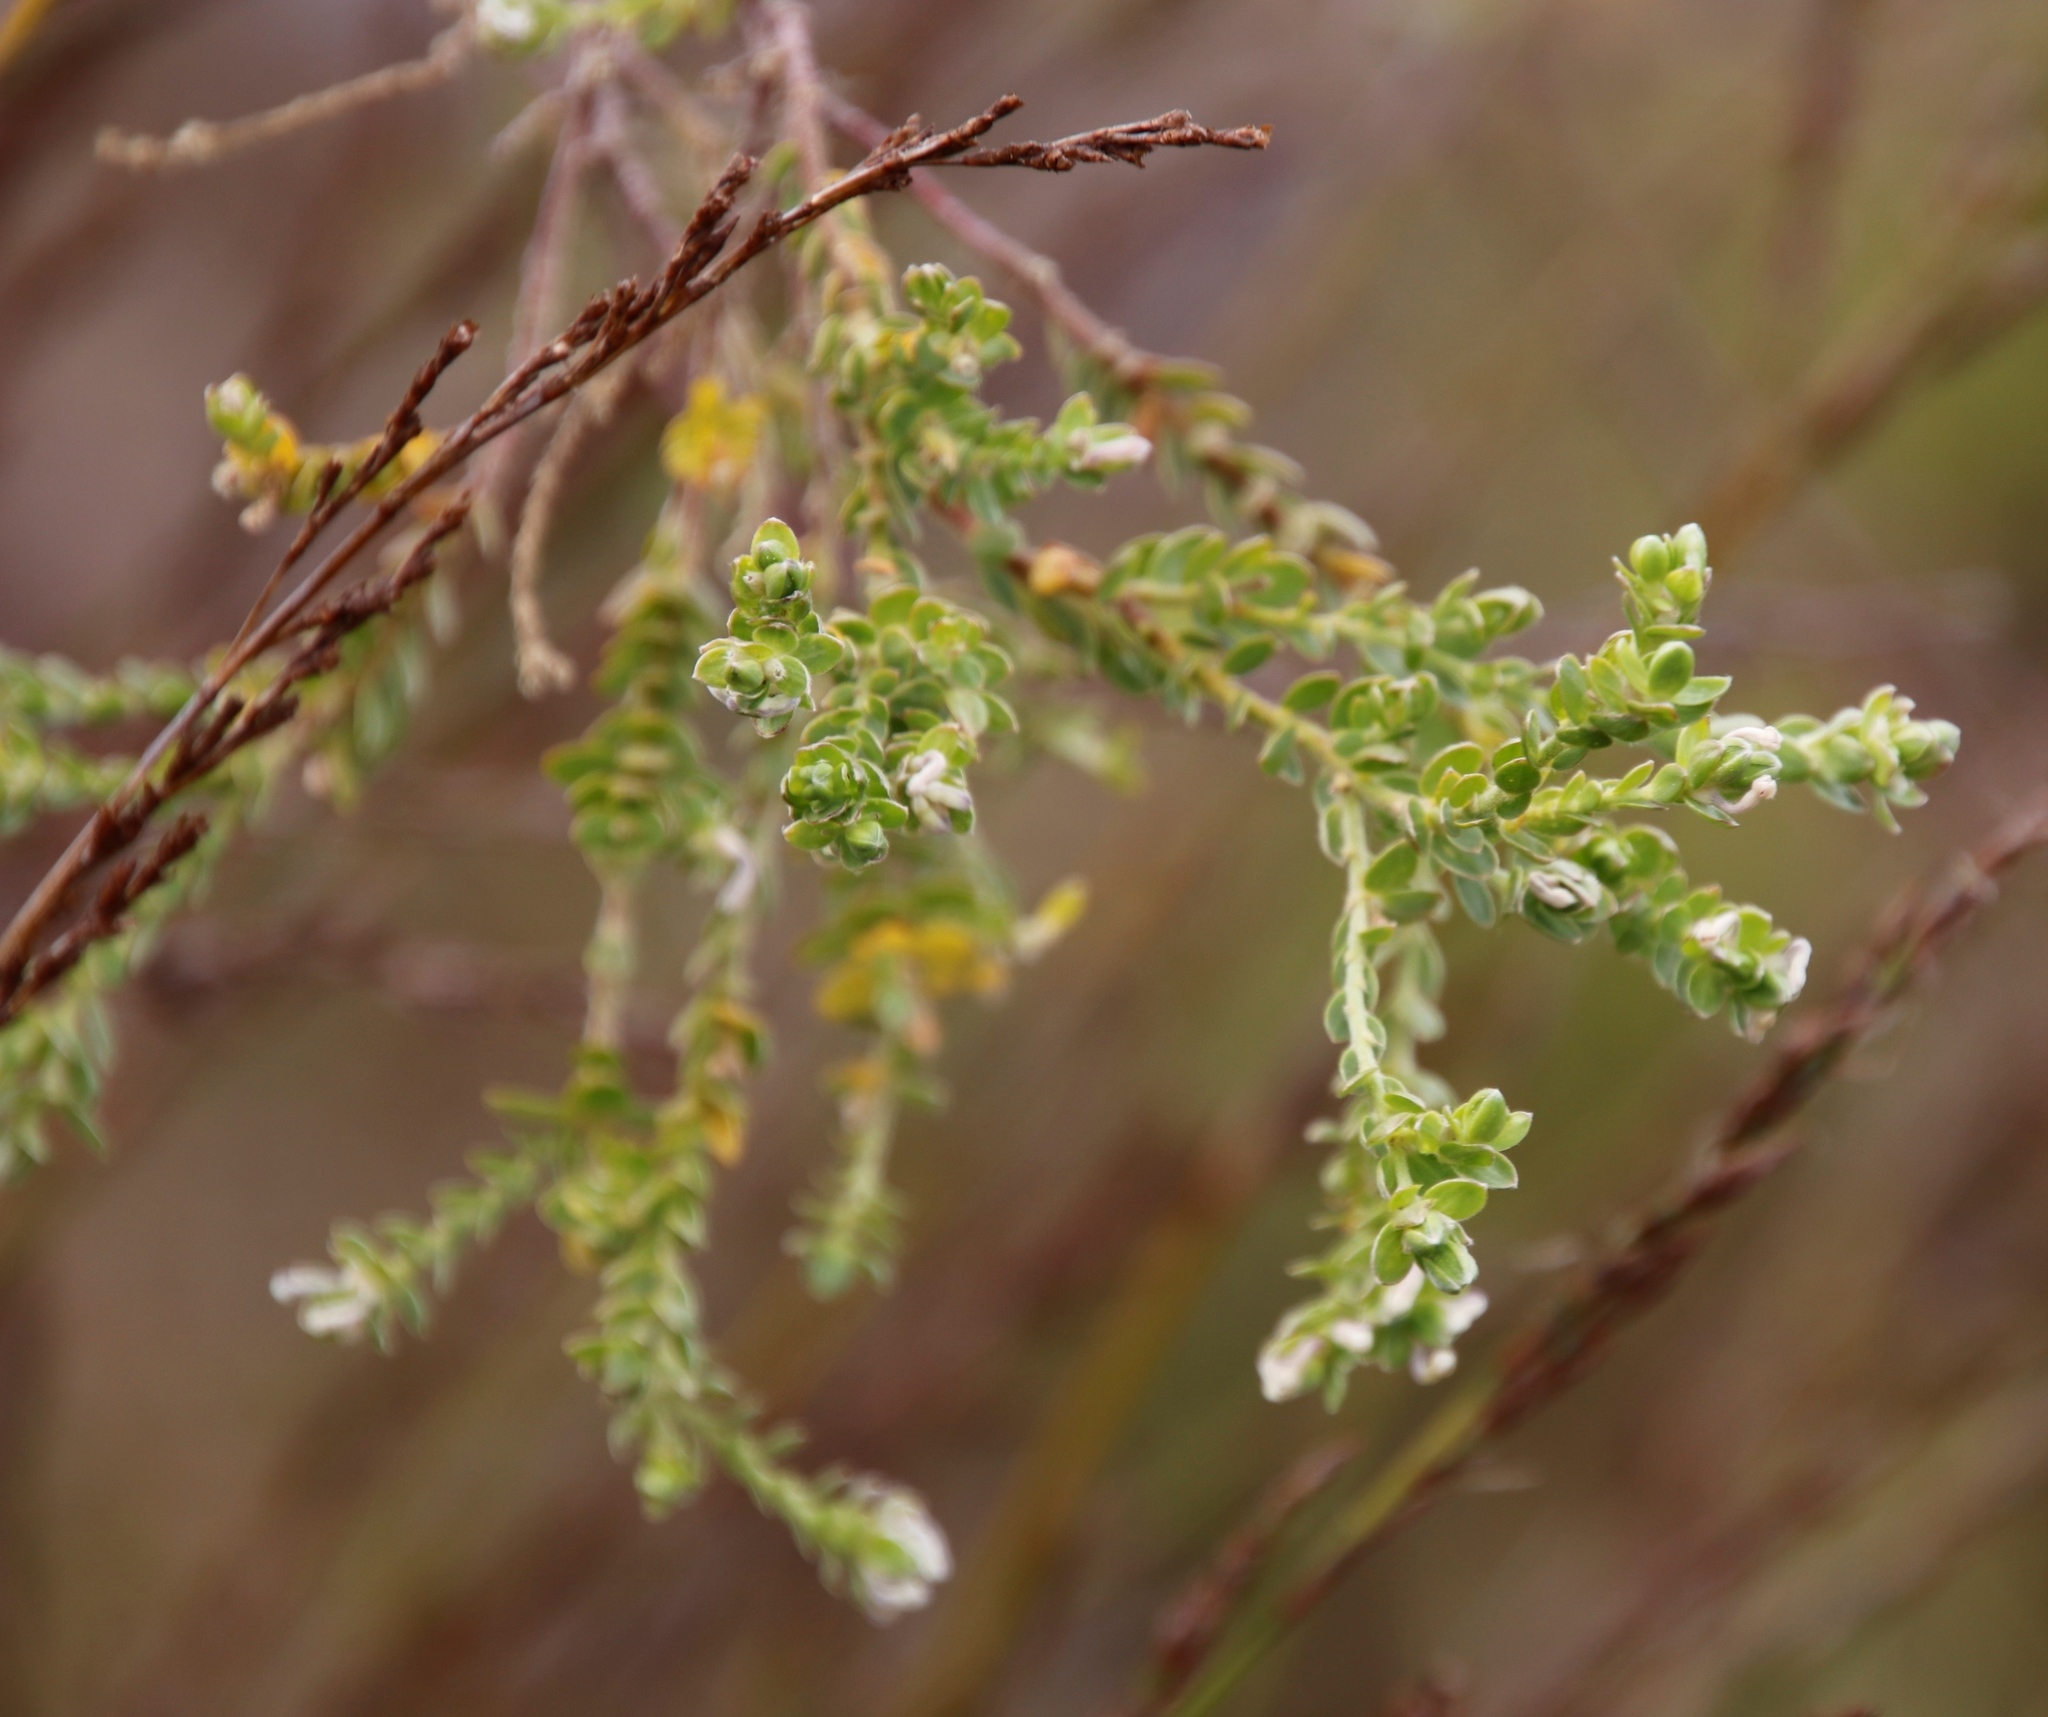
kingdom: Plantae
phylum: Tracheophyta
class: Magnoliopsida
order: Malvales
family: Thymelaeaceae
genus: Gnidia
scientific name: Gnidia sericea
